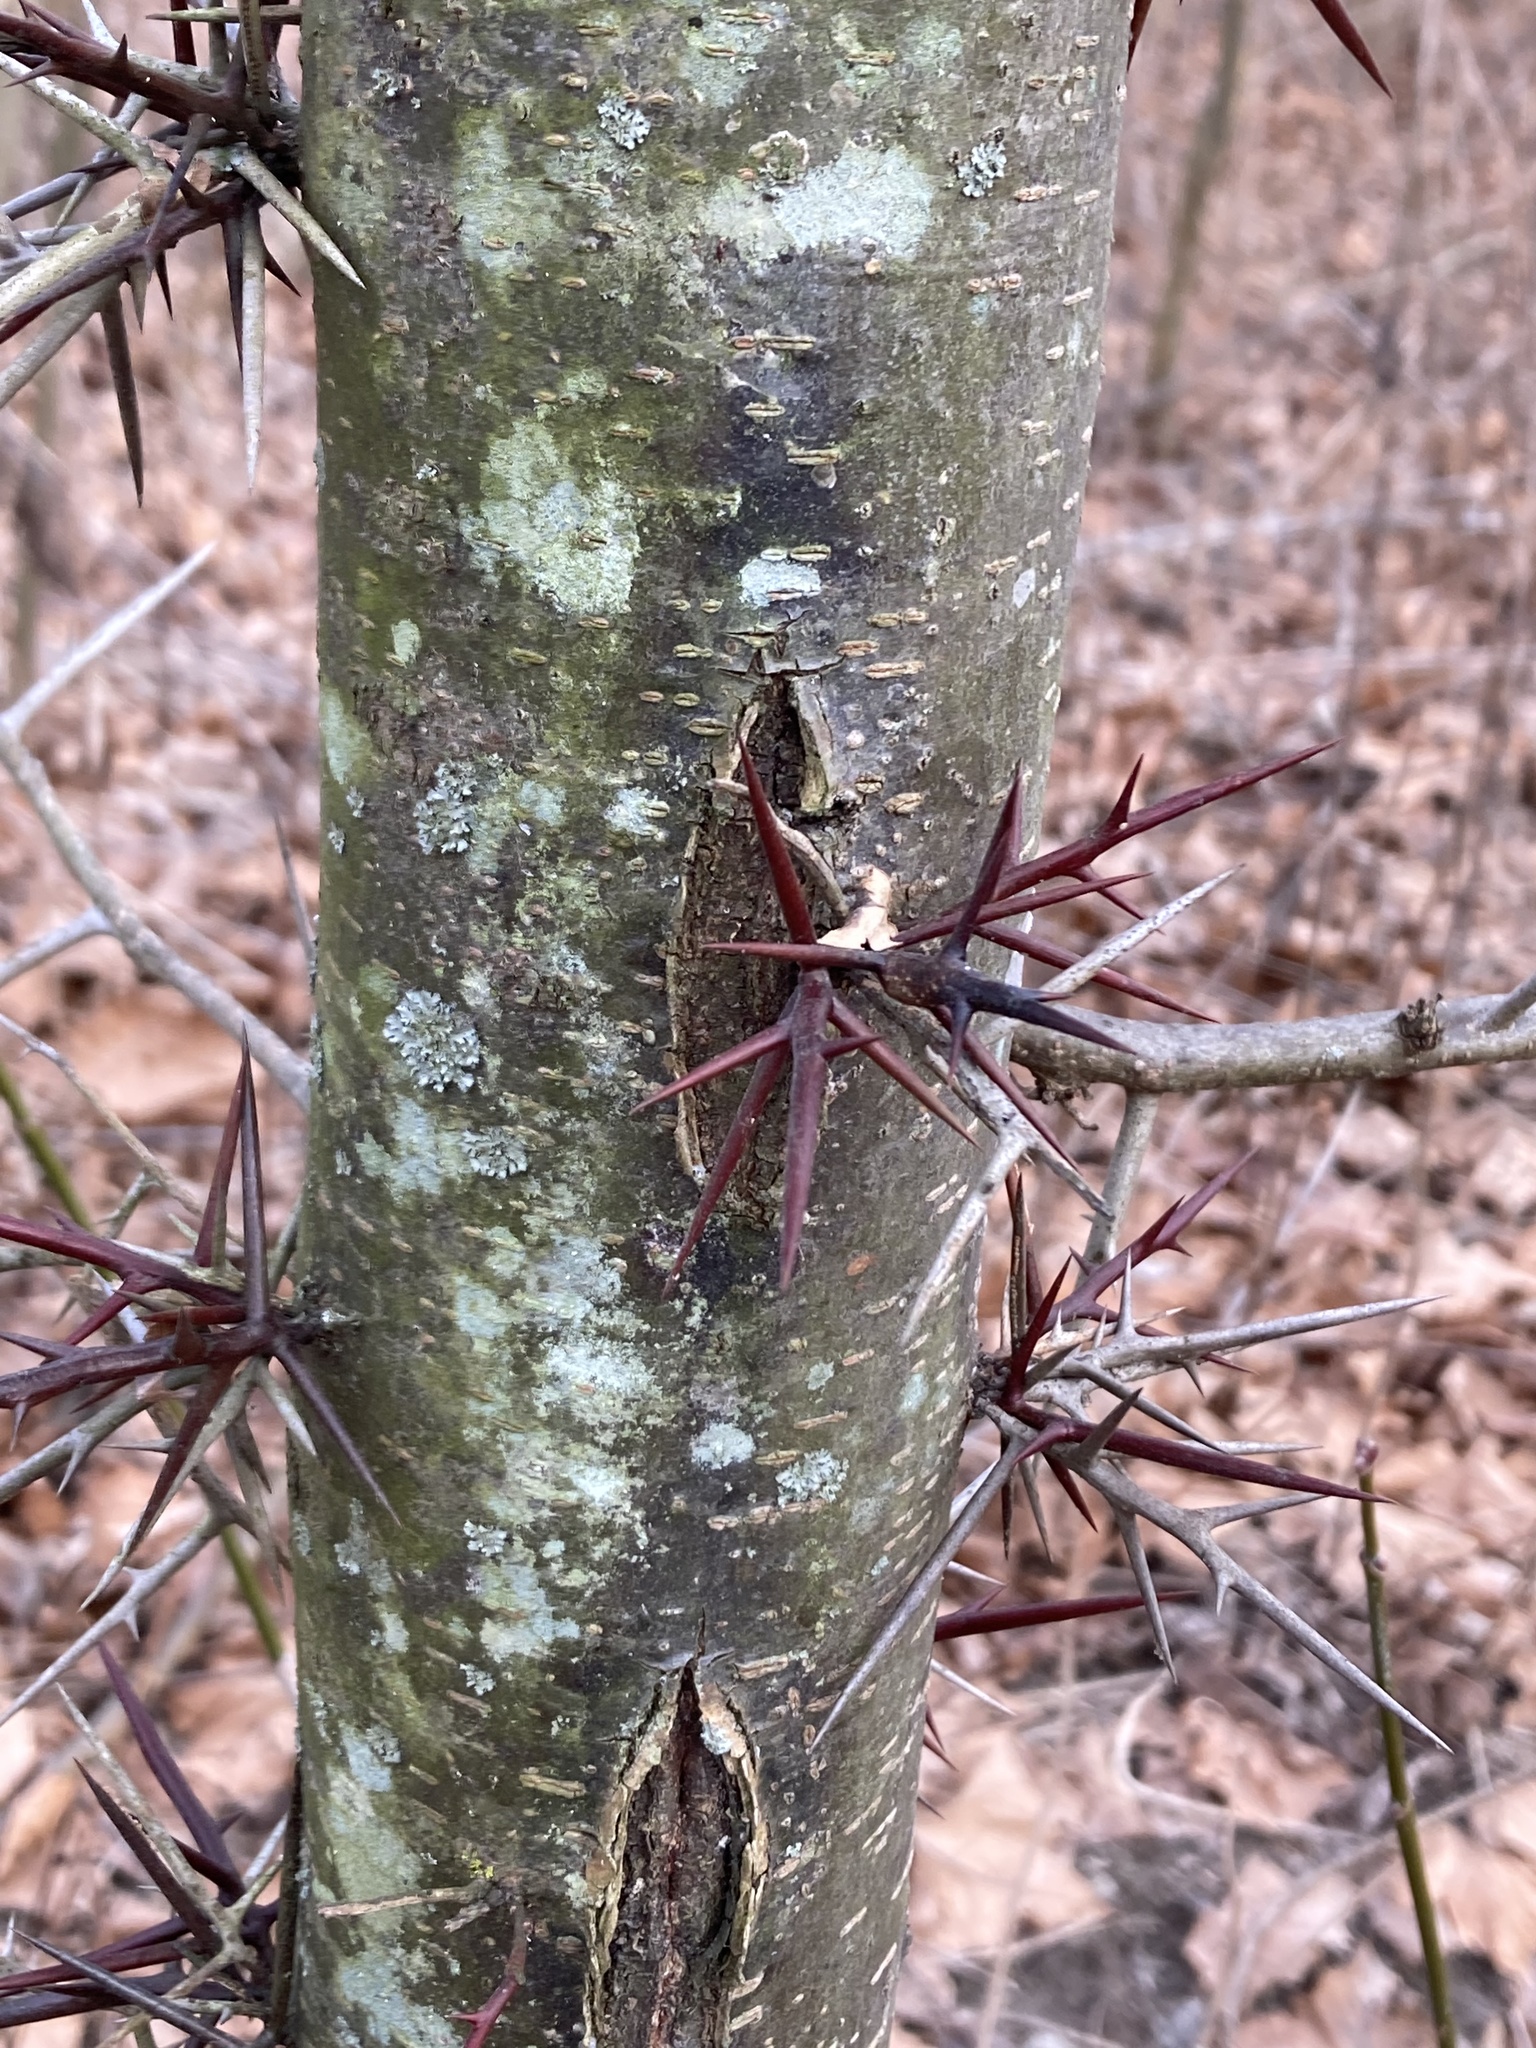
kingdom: Plantae
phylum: Tracheophyta
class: Magnoliopsida
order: Fabales
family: Fabaceae
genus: Gleditsia
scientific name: Gleditsia triacanthos
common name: Common honeylocust
